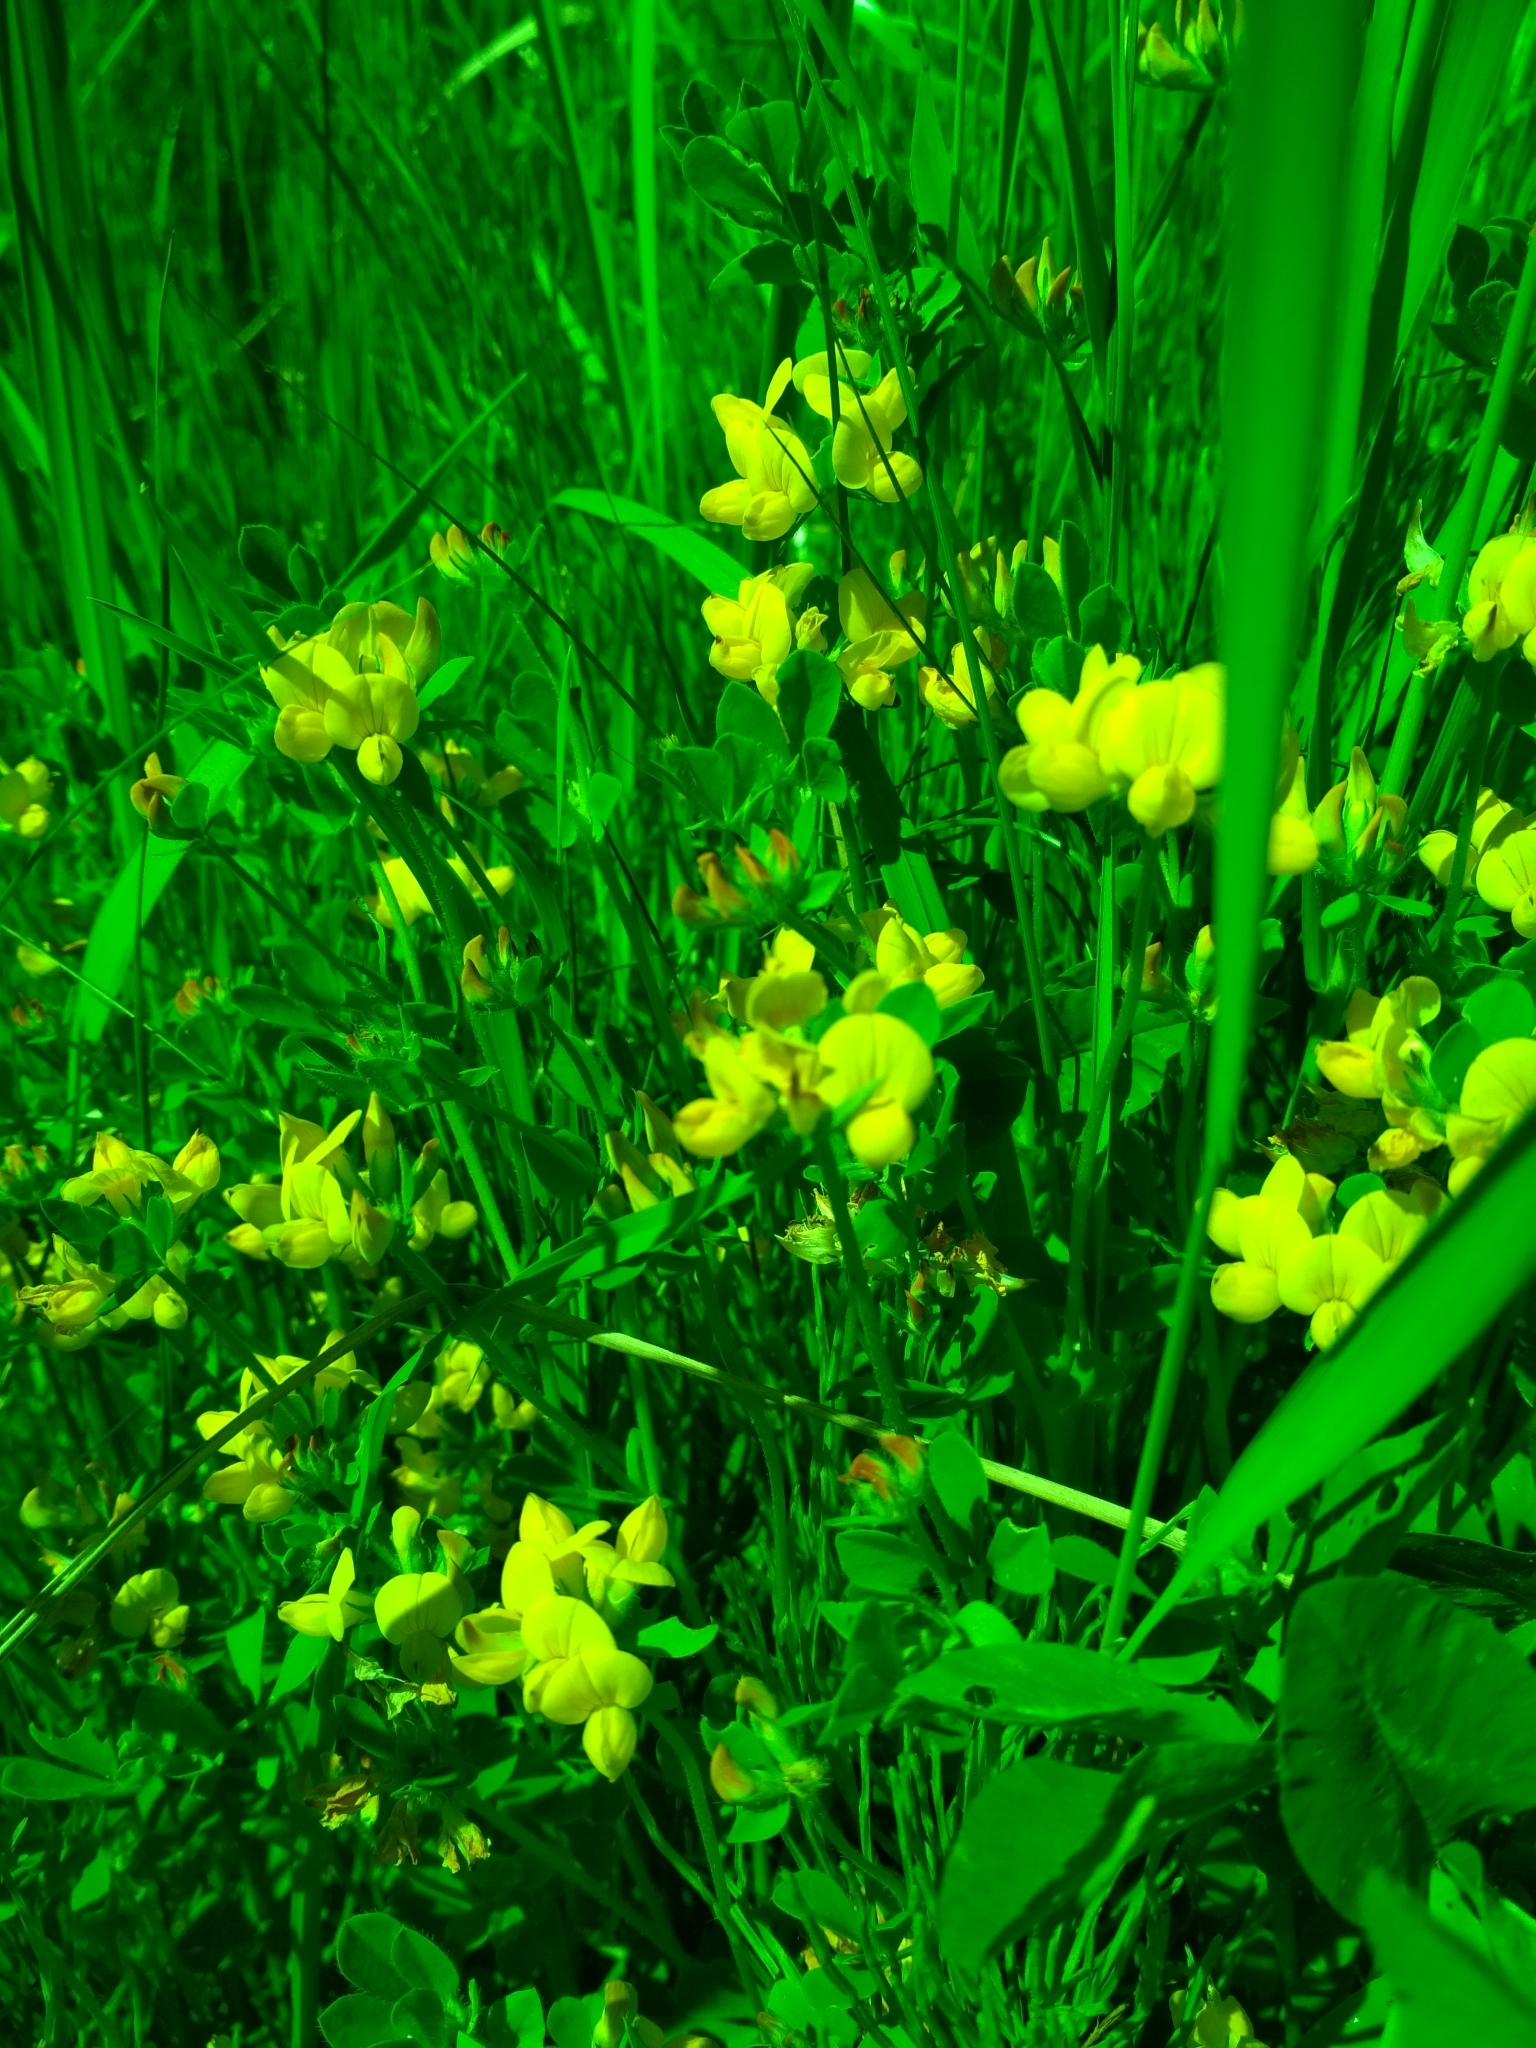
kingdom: Plantae
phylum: Tracheophyta
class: Magnoliopsida
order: Fabales
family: Fabaceae
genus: Lotus
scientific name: Lotus corniculatus
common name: Common bird's-foot-trefoil
